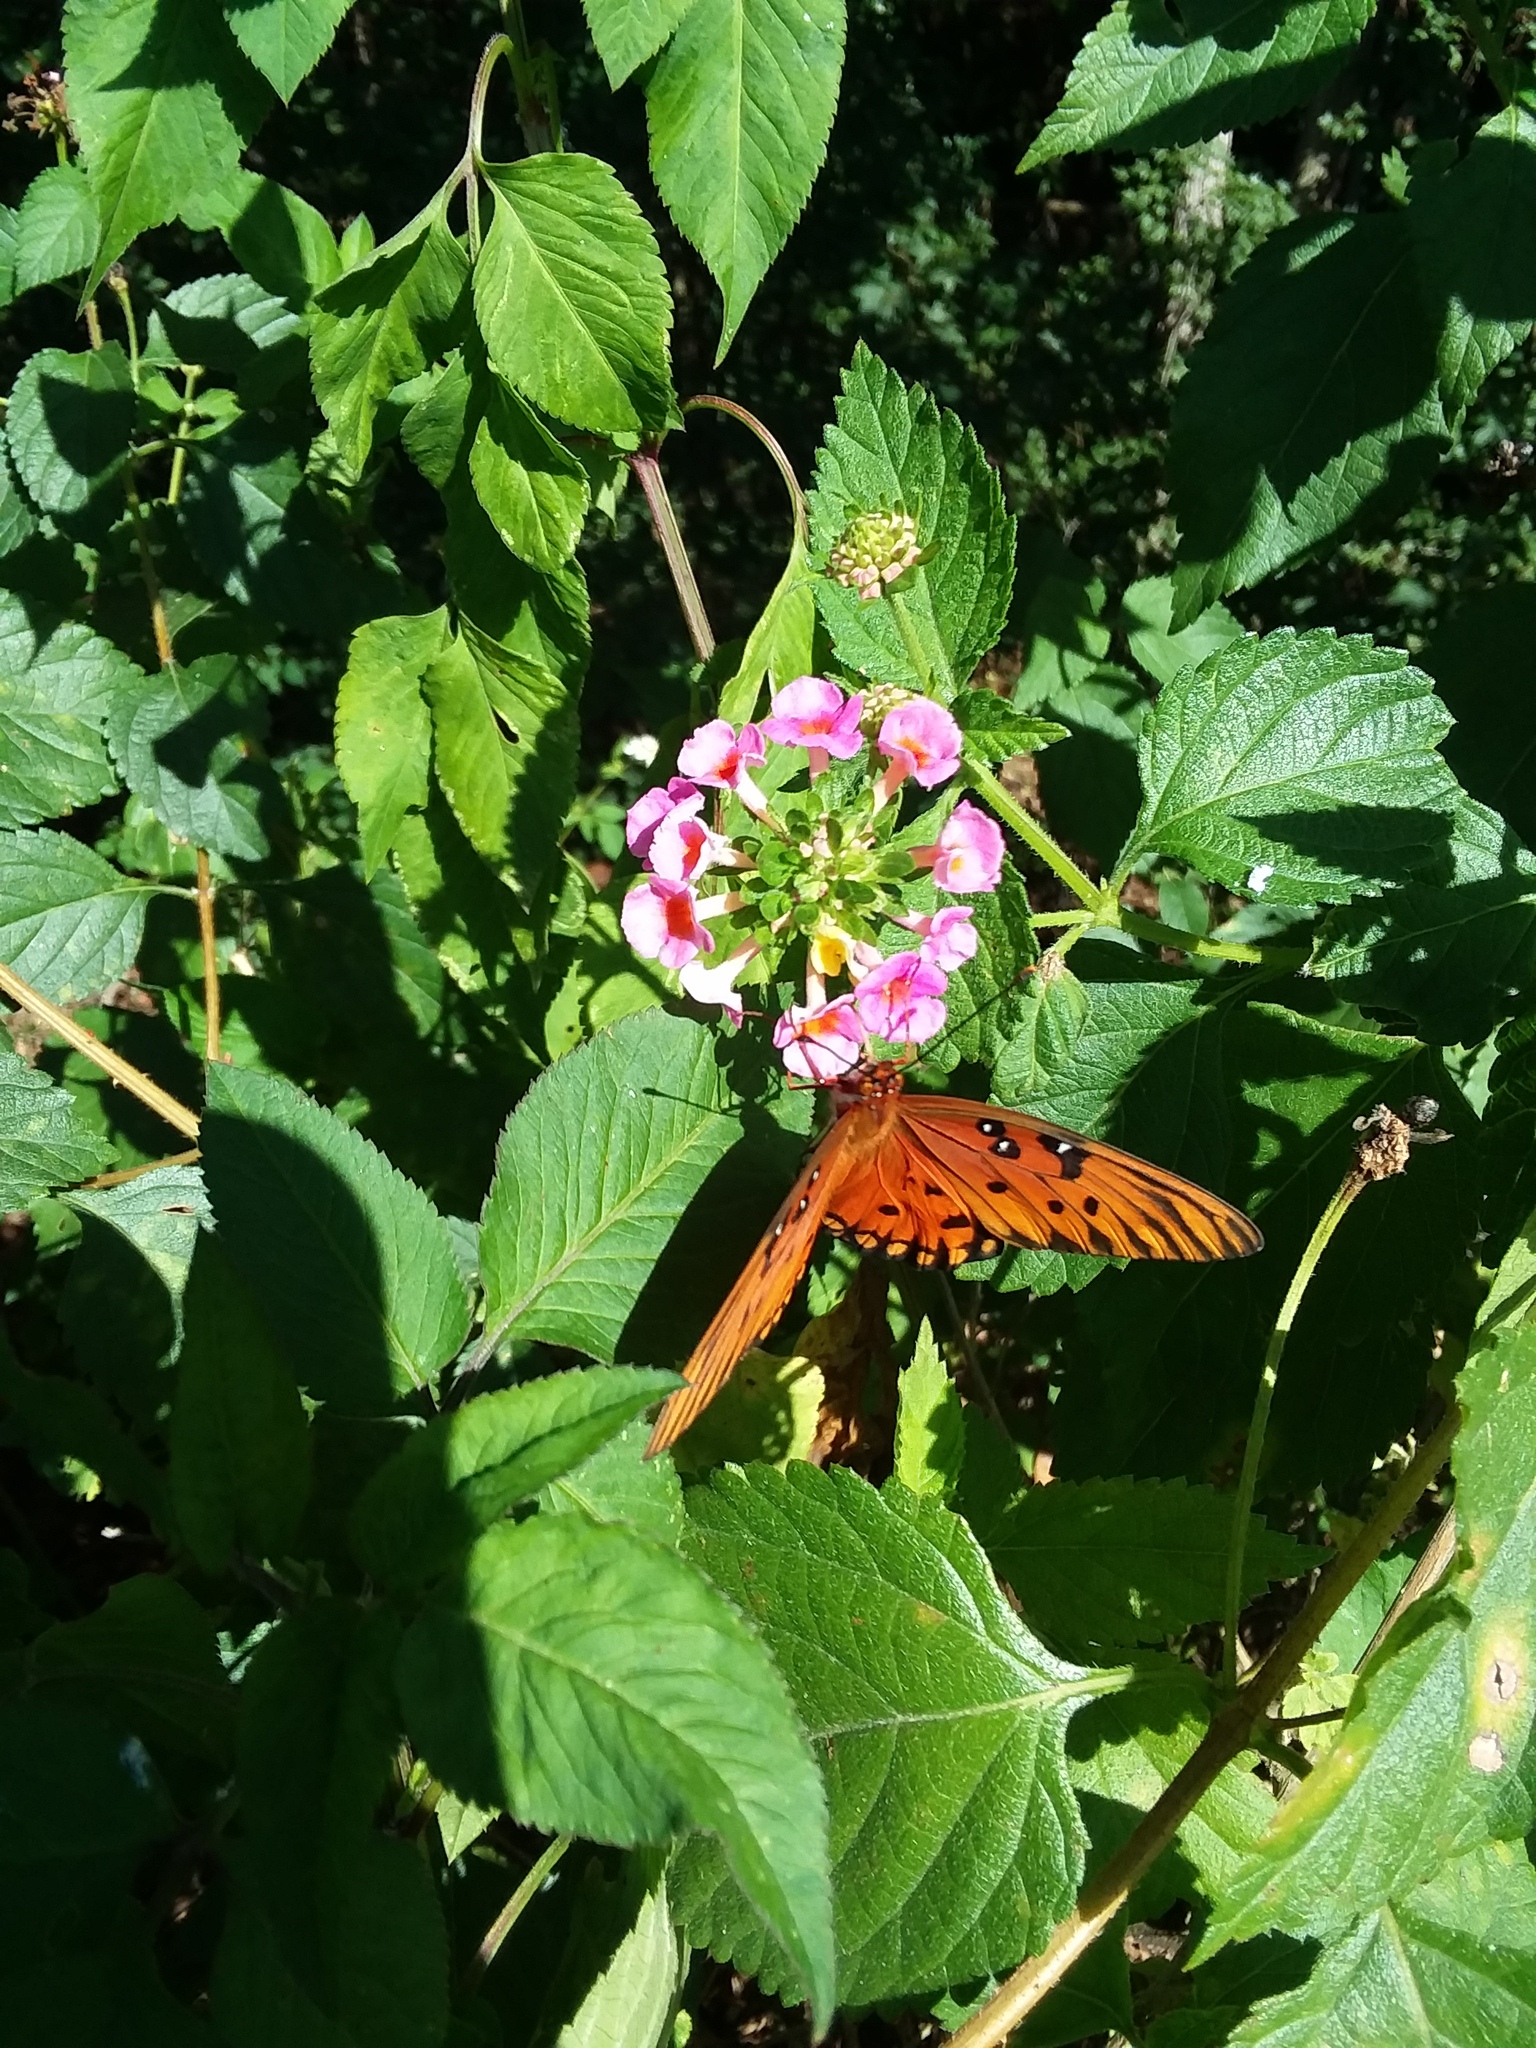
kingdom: Animalia
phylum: Arthropoda
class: Insecta
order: Lepidoptera
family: Nymphalidae
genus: Dione
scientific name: Dione vanillae
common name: Gulf fritillary
